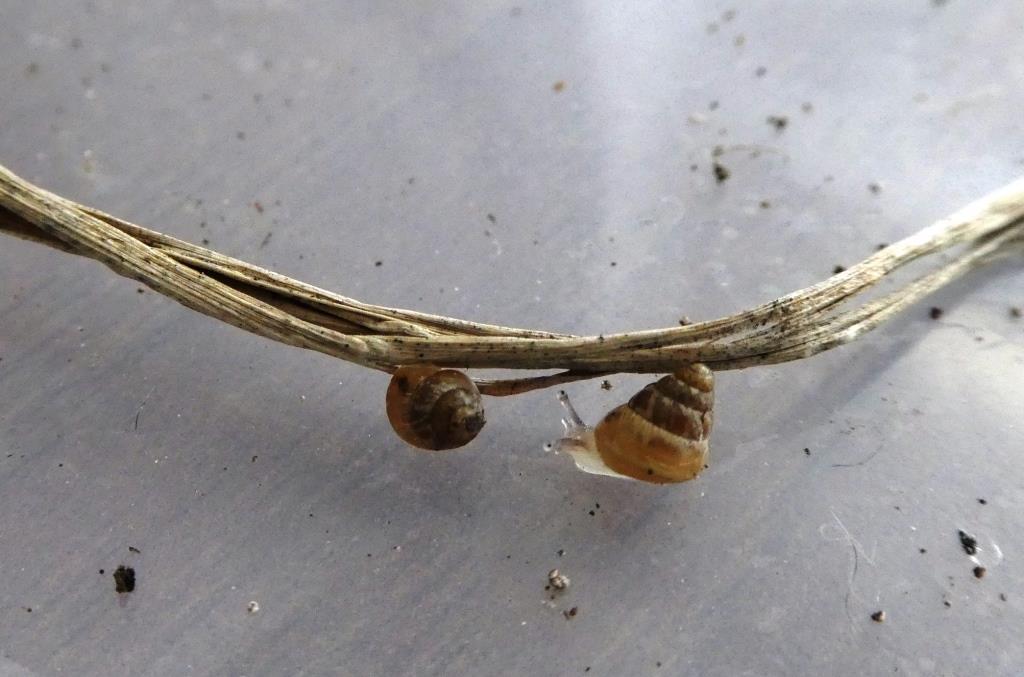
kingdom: Animalia
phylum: Mollusca
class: Gastropoda
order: Stylommatophora
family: Geomitridae
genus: Cochlicella
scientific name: Cochlicella barbara
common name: Potbellied helicellid
